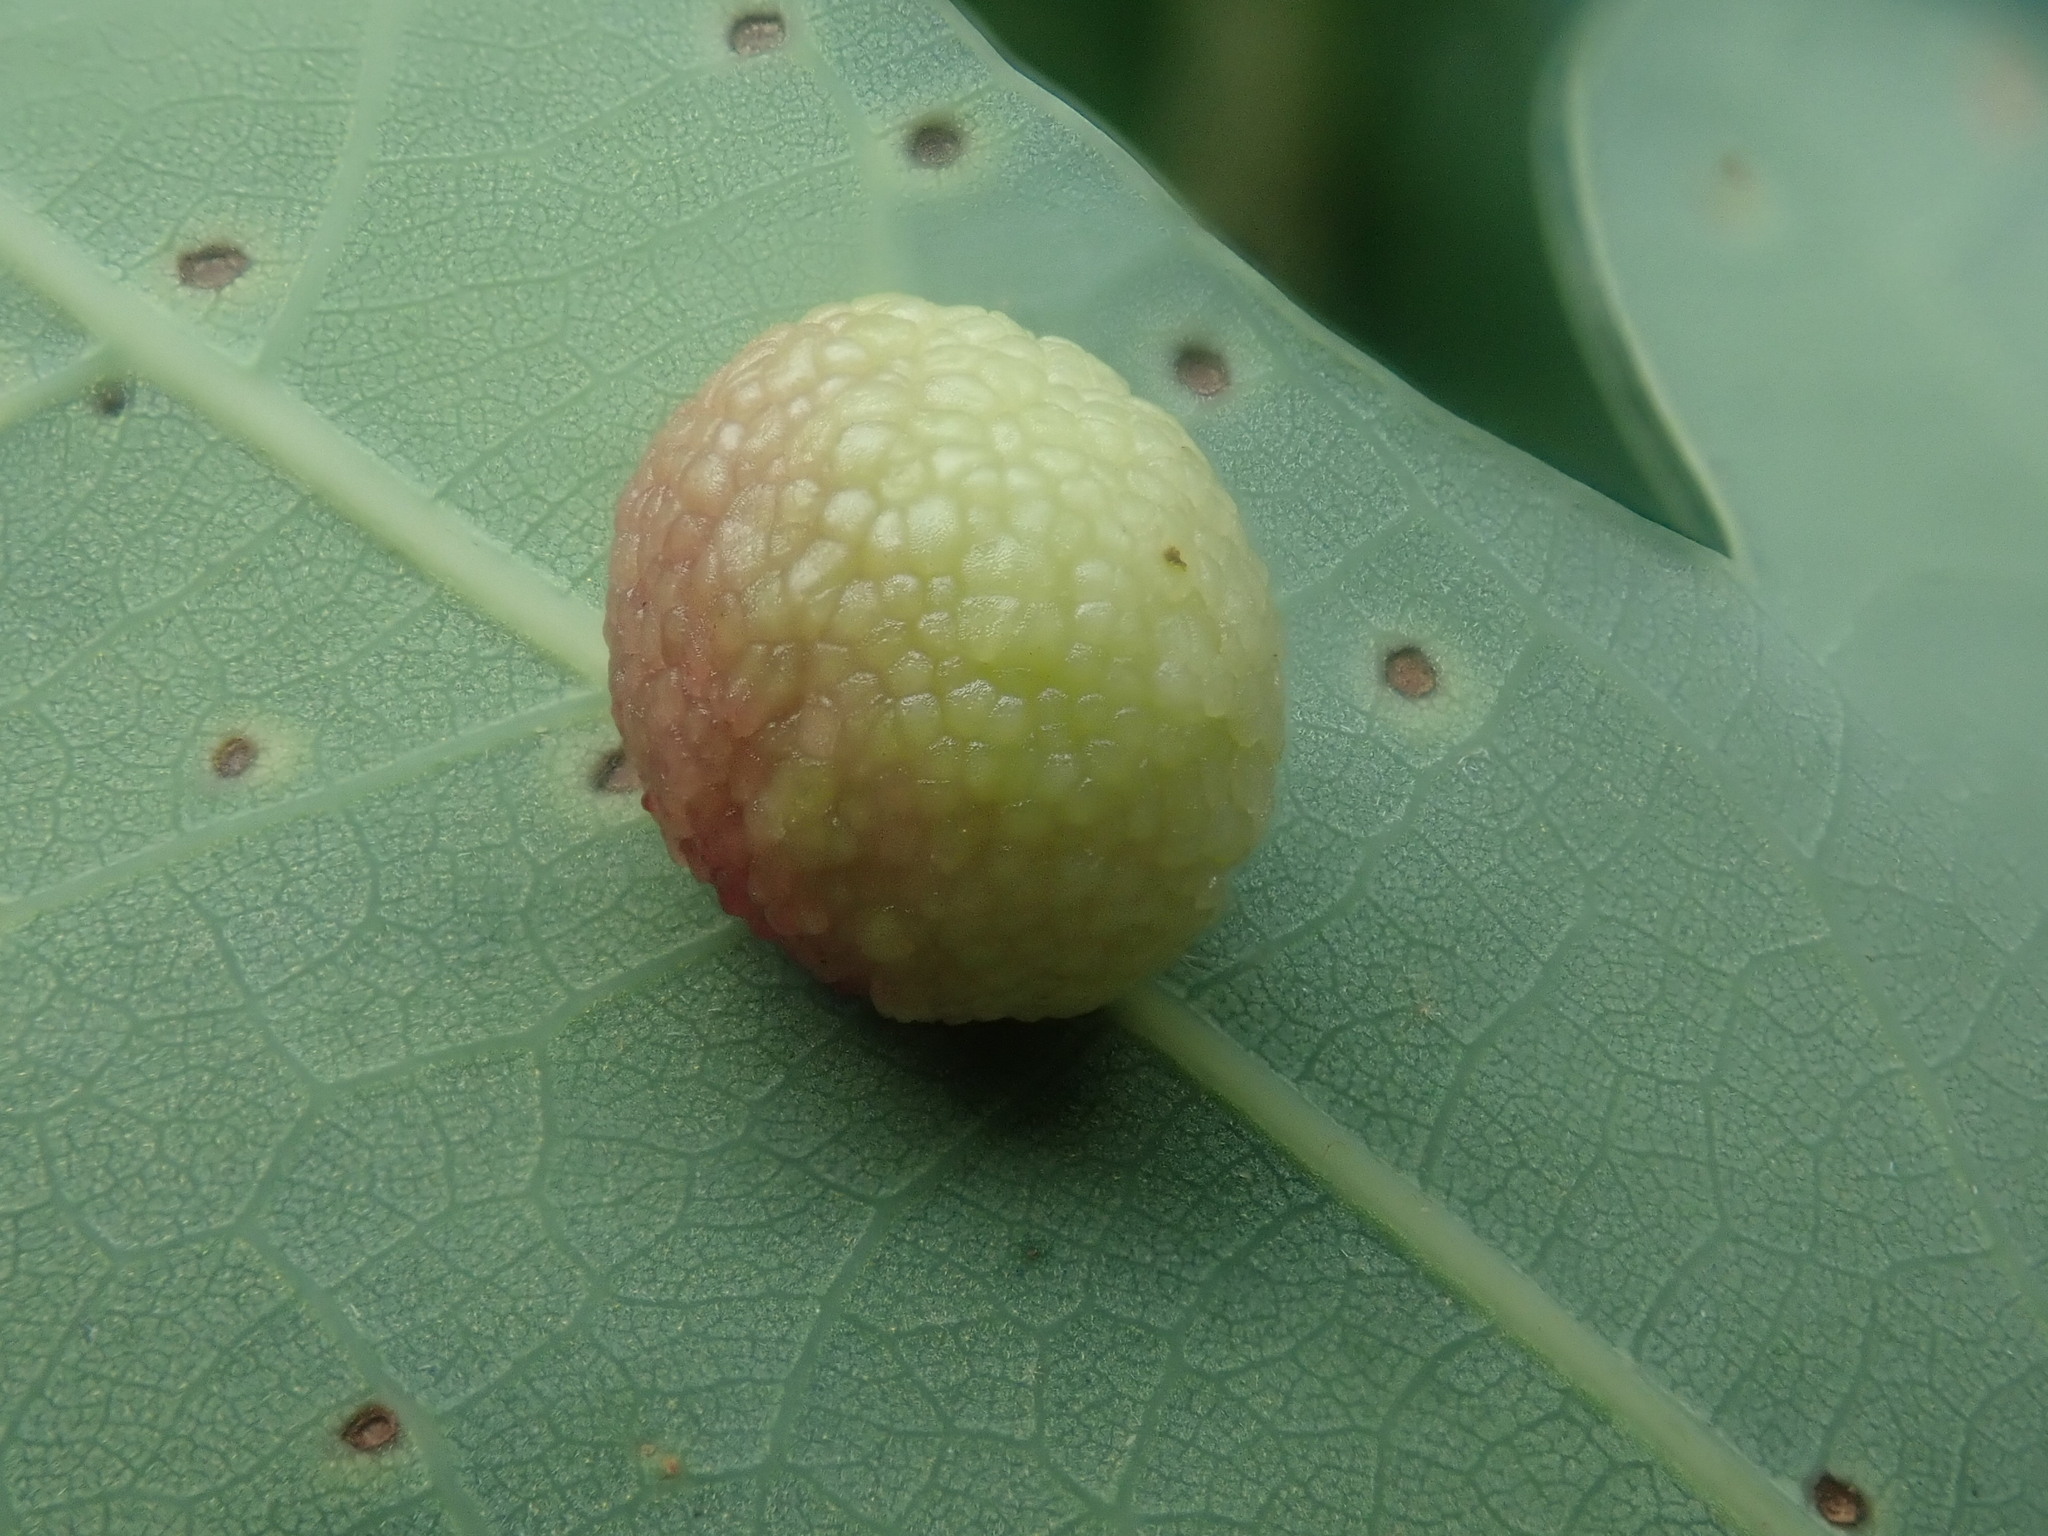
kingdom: Animalia
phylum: Arthropoda
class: Insecta
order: Hymenoptera
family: Cynipidae
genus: Acraspis
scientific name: Acraspis
